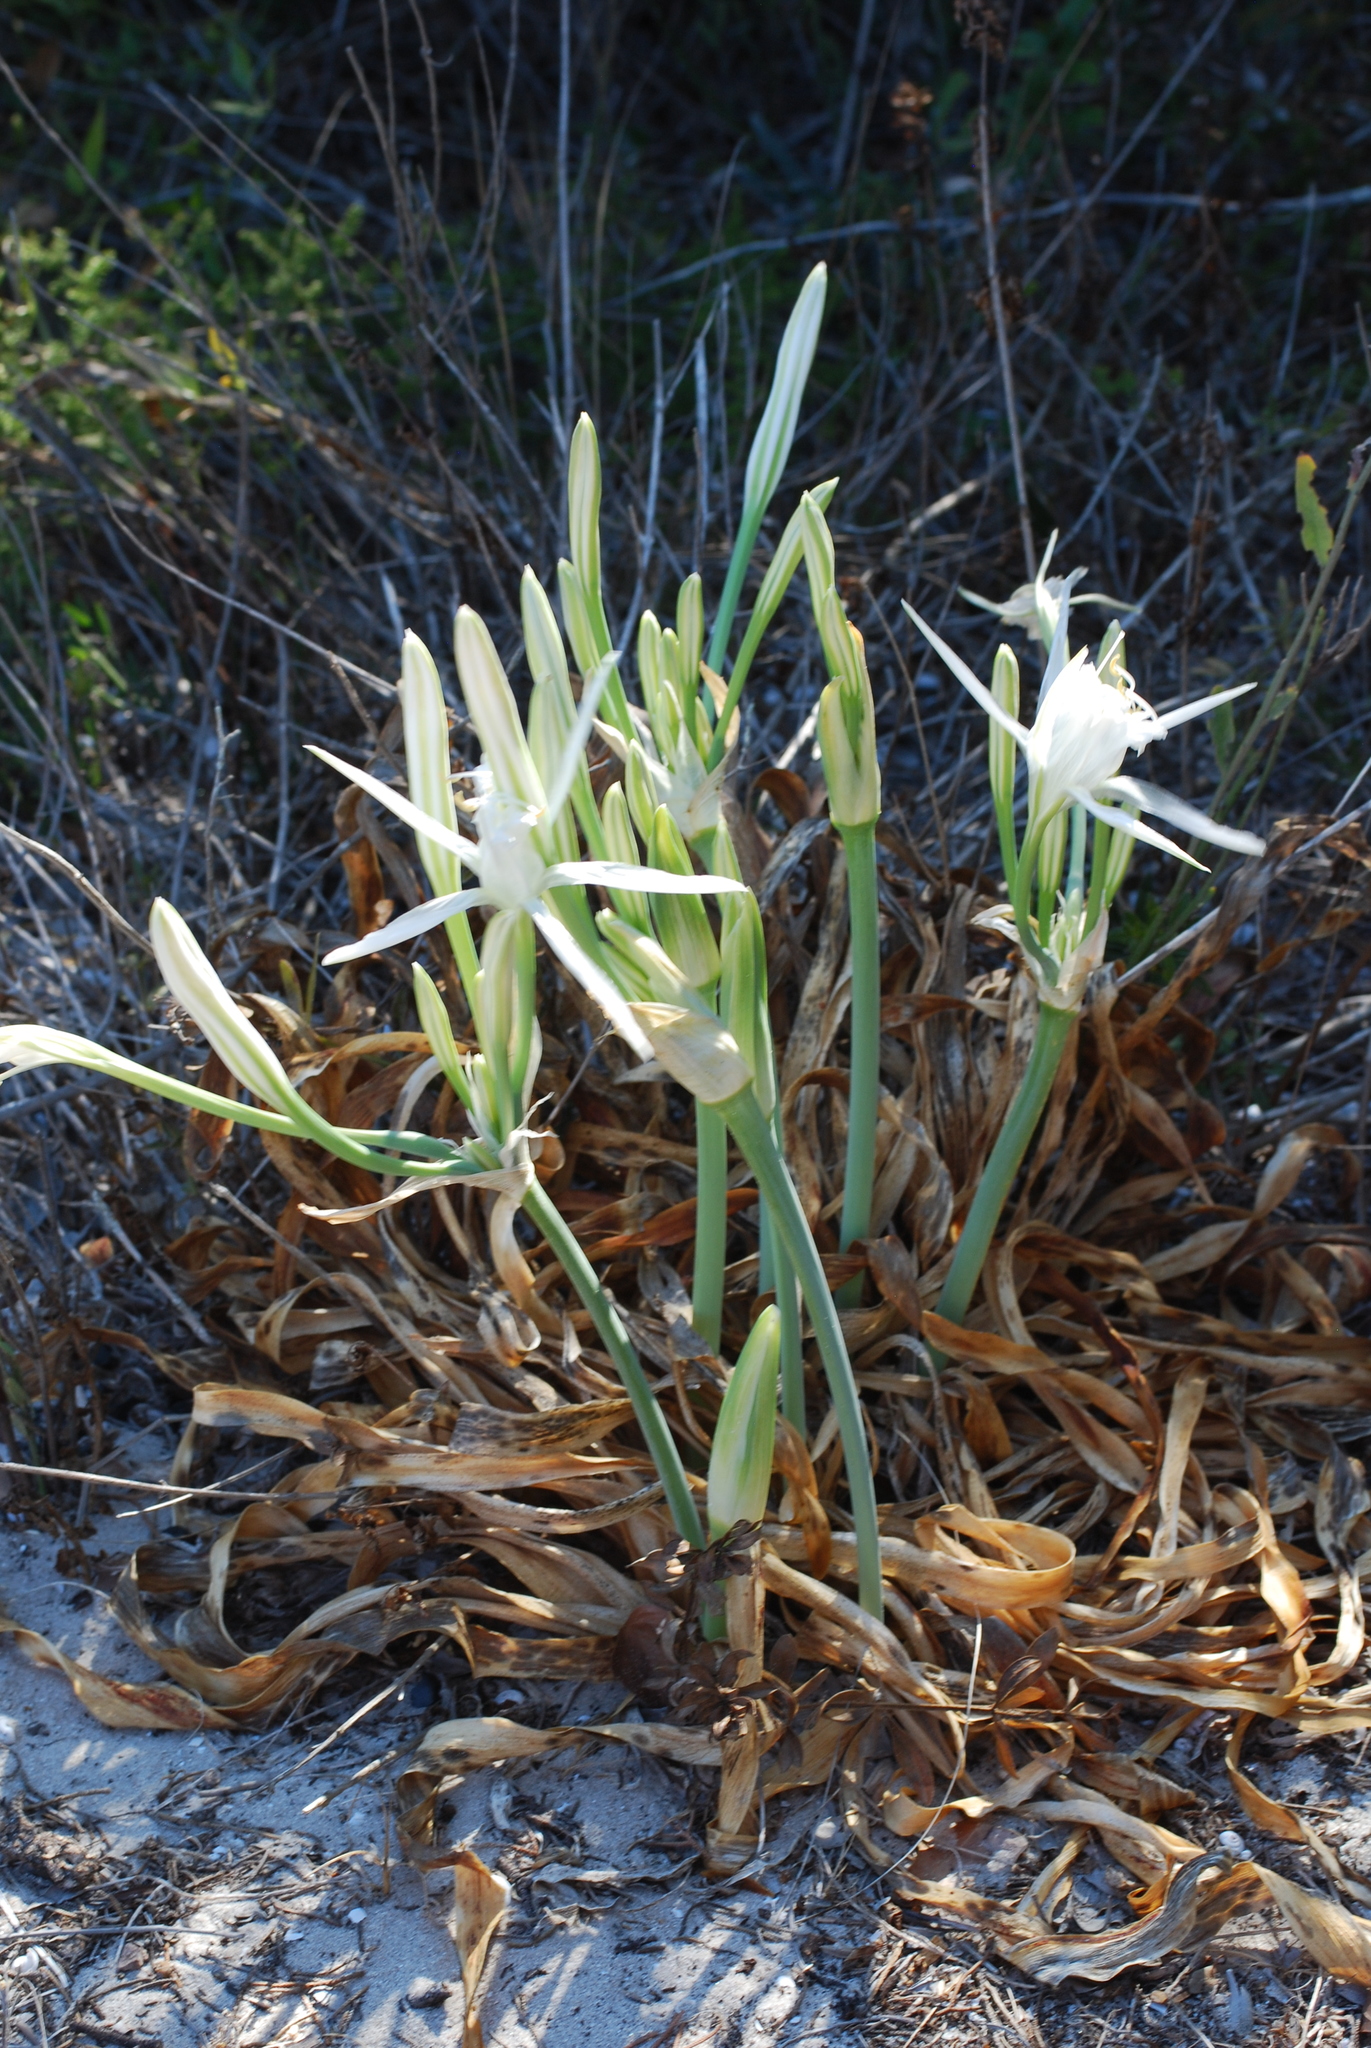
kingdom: Plantae
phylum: Tracheophyta
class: Liliopsida
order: Asparagales
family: Amaryllidaceae
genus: Pancratium
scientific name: Pancratium maritimum
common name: Sea-daffodil
